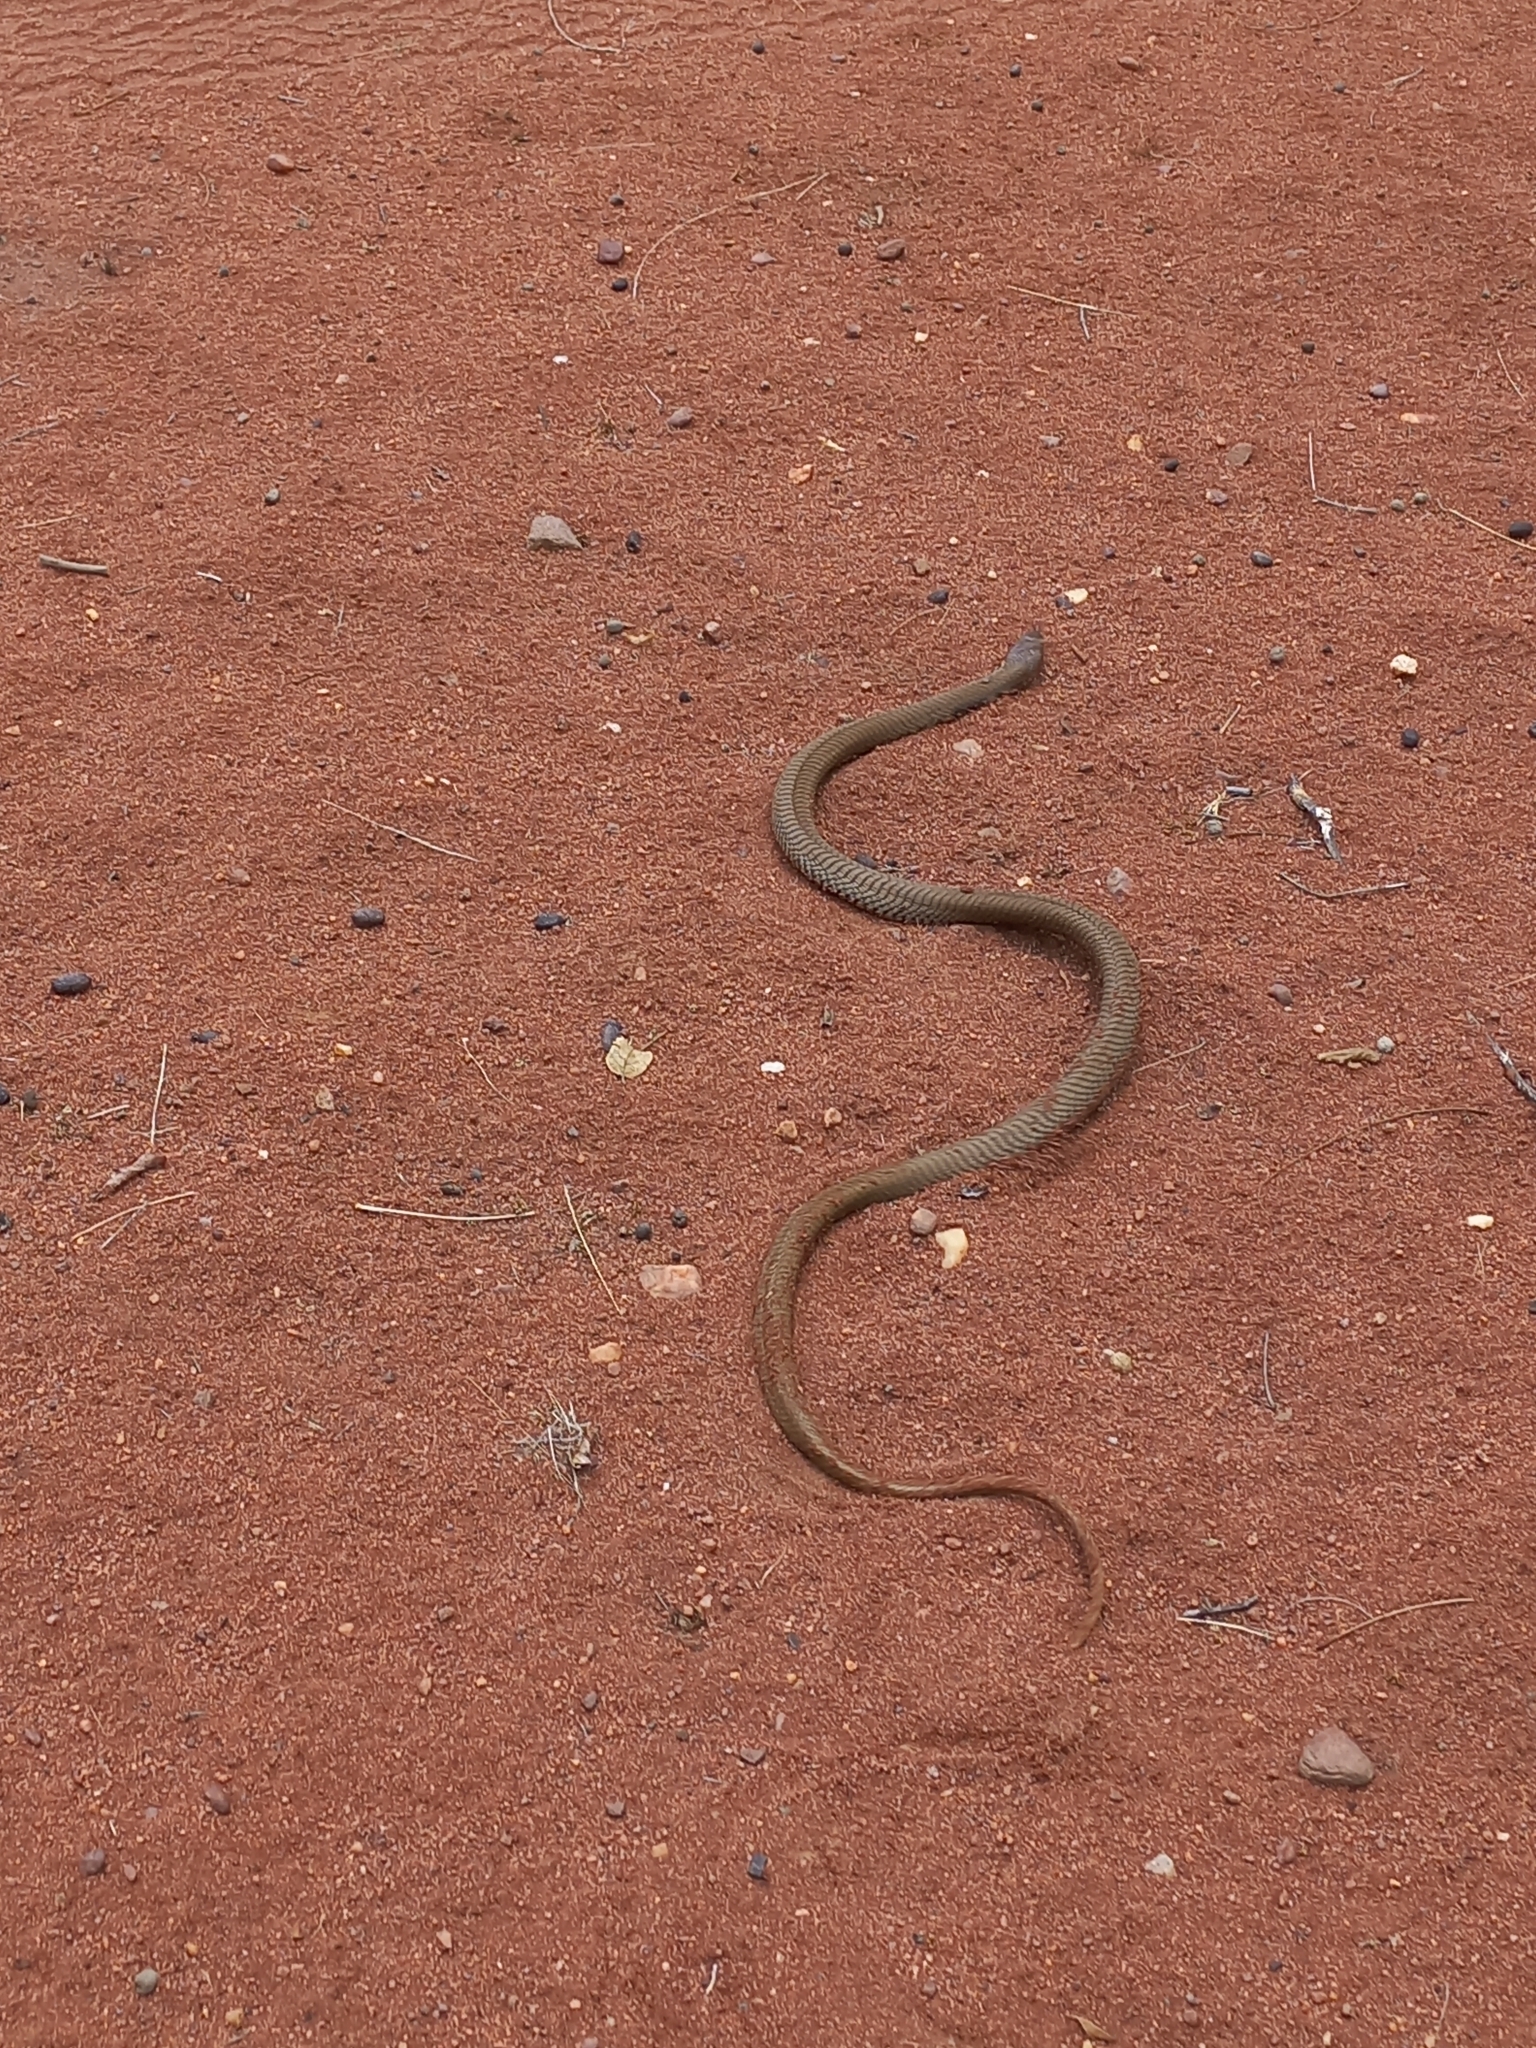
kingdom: Animalia
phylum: Chordata
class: Squamata
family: Elapidae
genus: Naja
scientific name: Naja mossambica
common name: Mozambique spitting cobra
